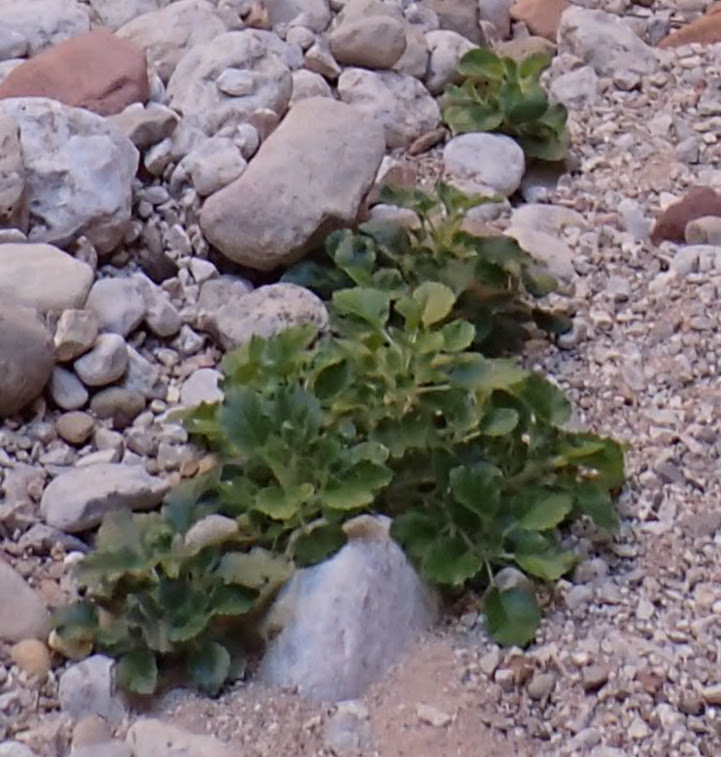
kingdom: Plantae
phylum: Tracheophyta
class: Magnoliopsida
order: Cornales
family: Loasaceae
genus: Eucnide
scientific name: Eucnide urens
